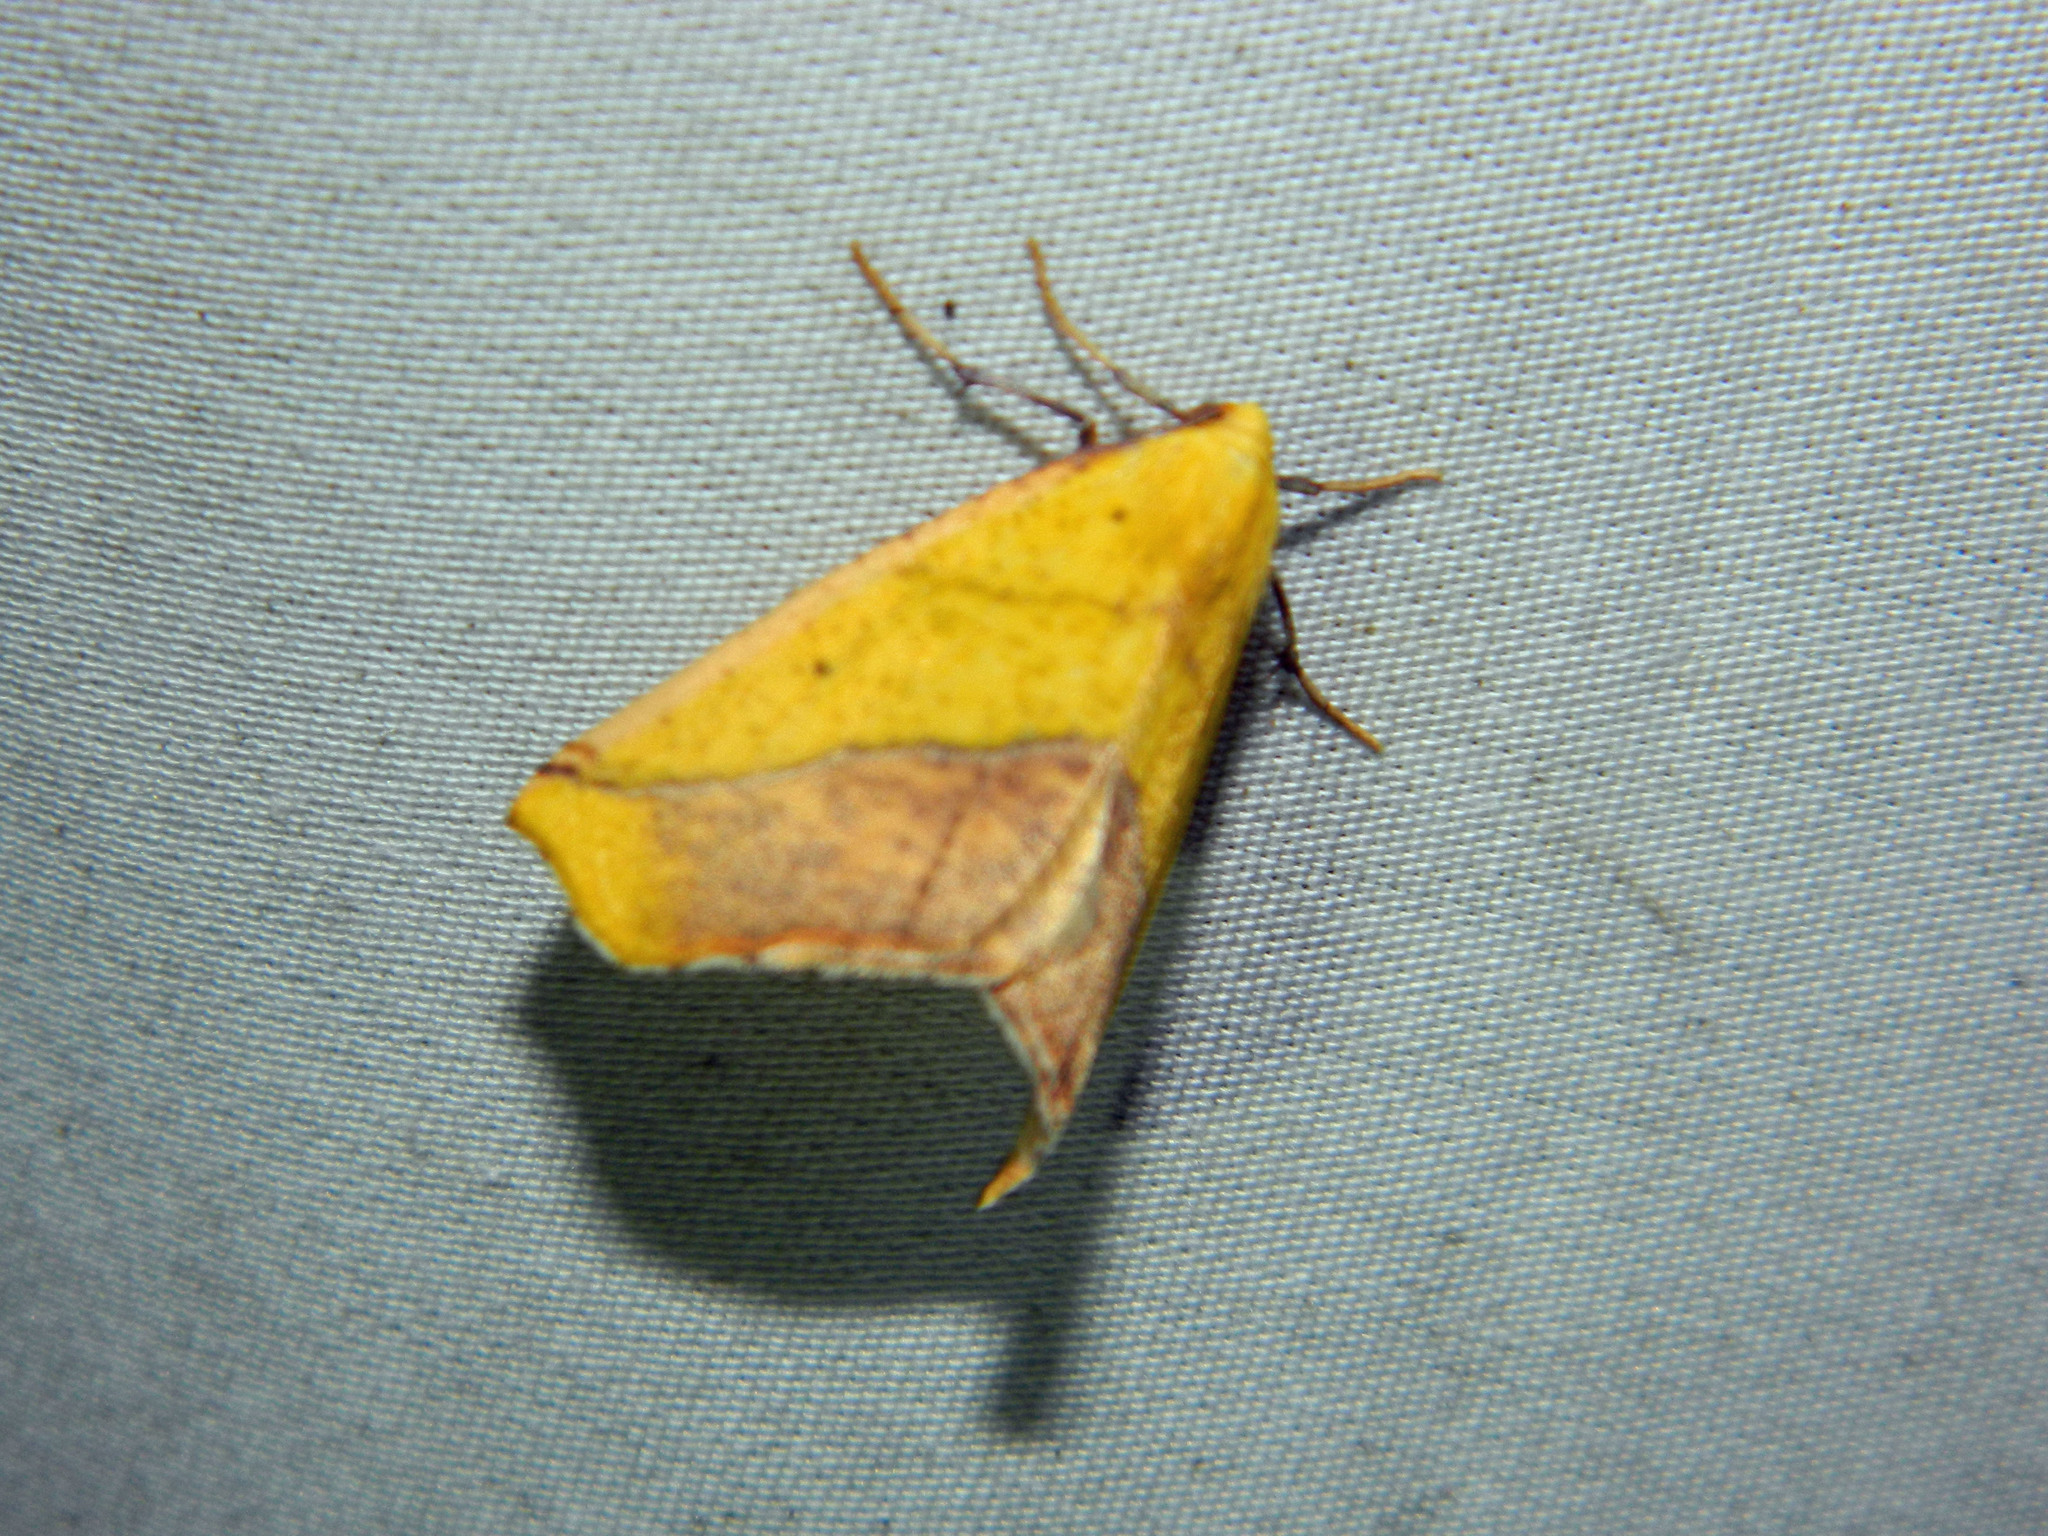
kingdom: Animalia
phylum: Arthropoda
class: Insecta
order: Lepidoptera
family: Geometridae
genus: Sicya
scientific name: Sicya macularia
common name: Sharp-lined yellow
